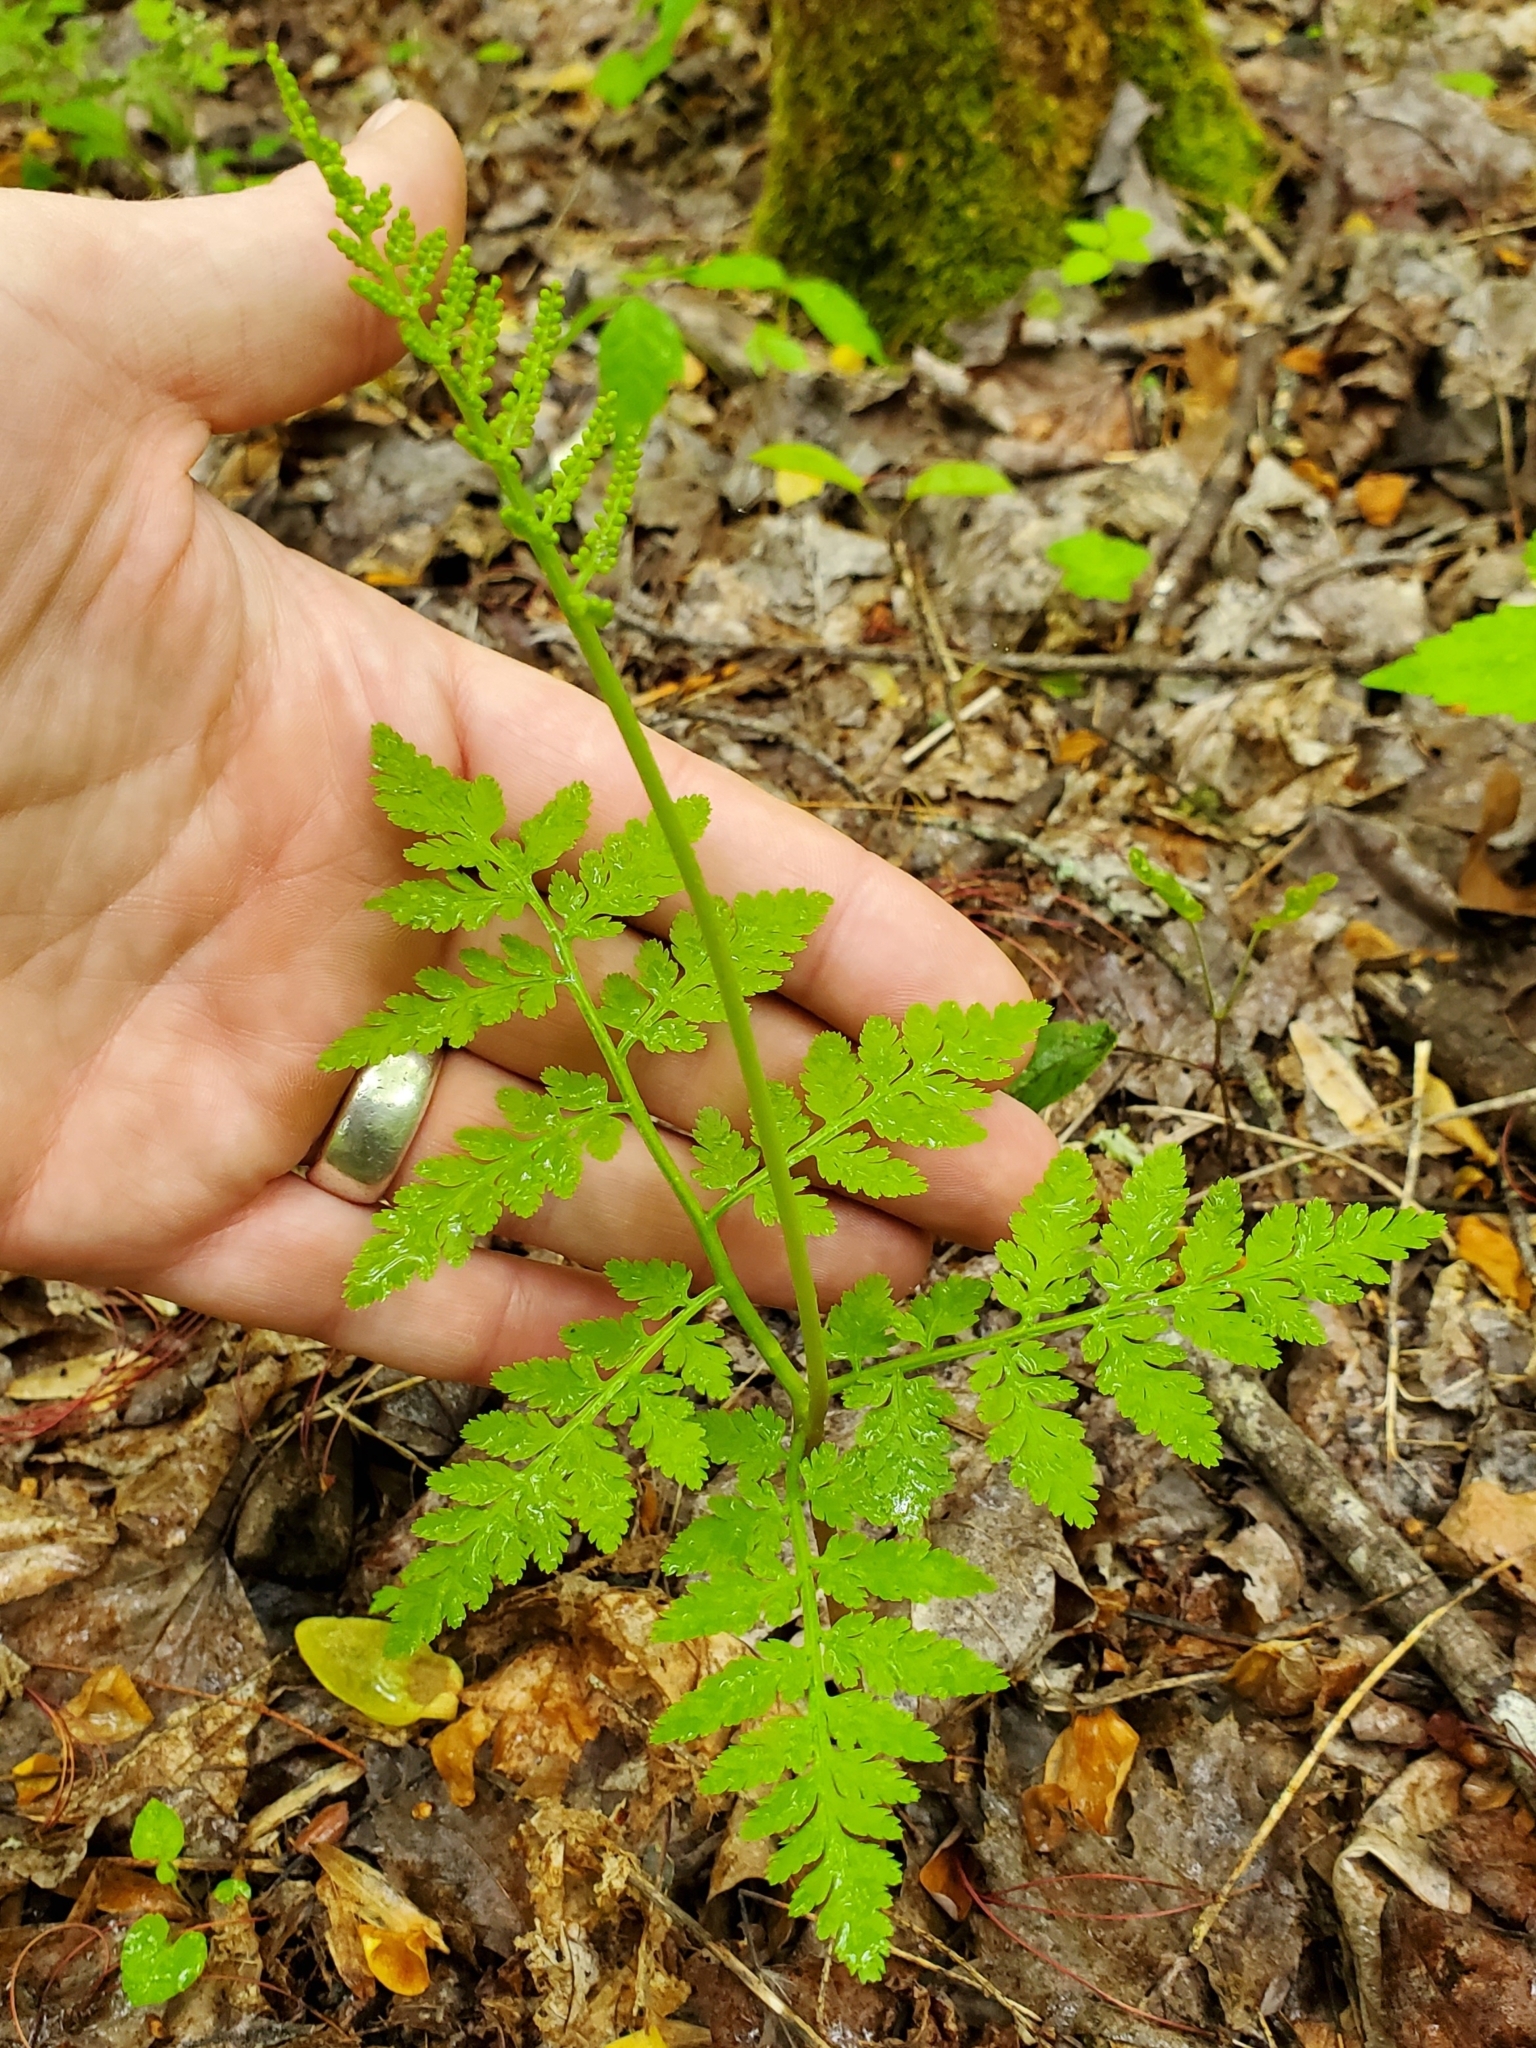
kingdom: Plantae
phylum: Tracheophyta
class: Polypodiopsida
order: Ophioglossales
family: Ophioglossaceae
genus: Botrypus
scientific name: Botrypus virginianus
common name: Common grapefern
